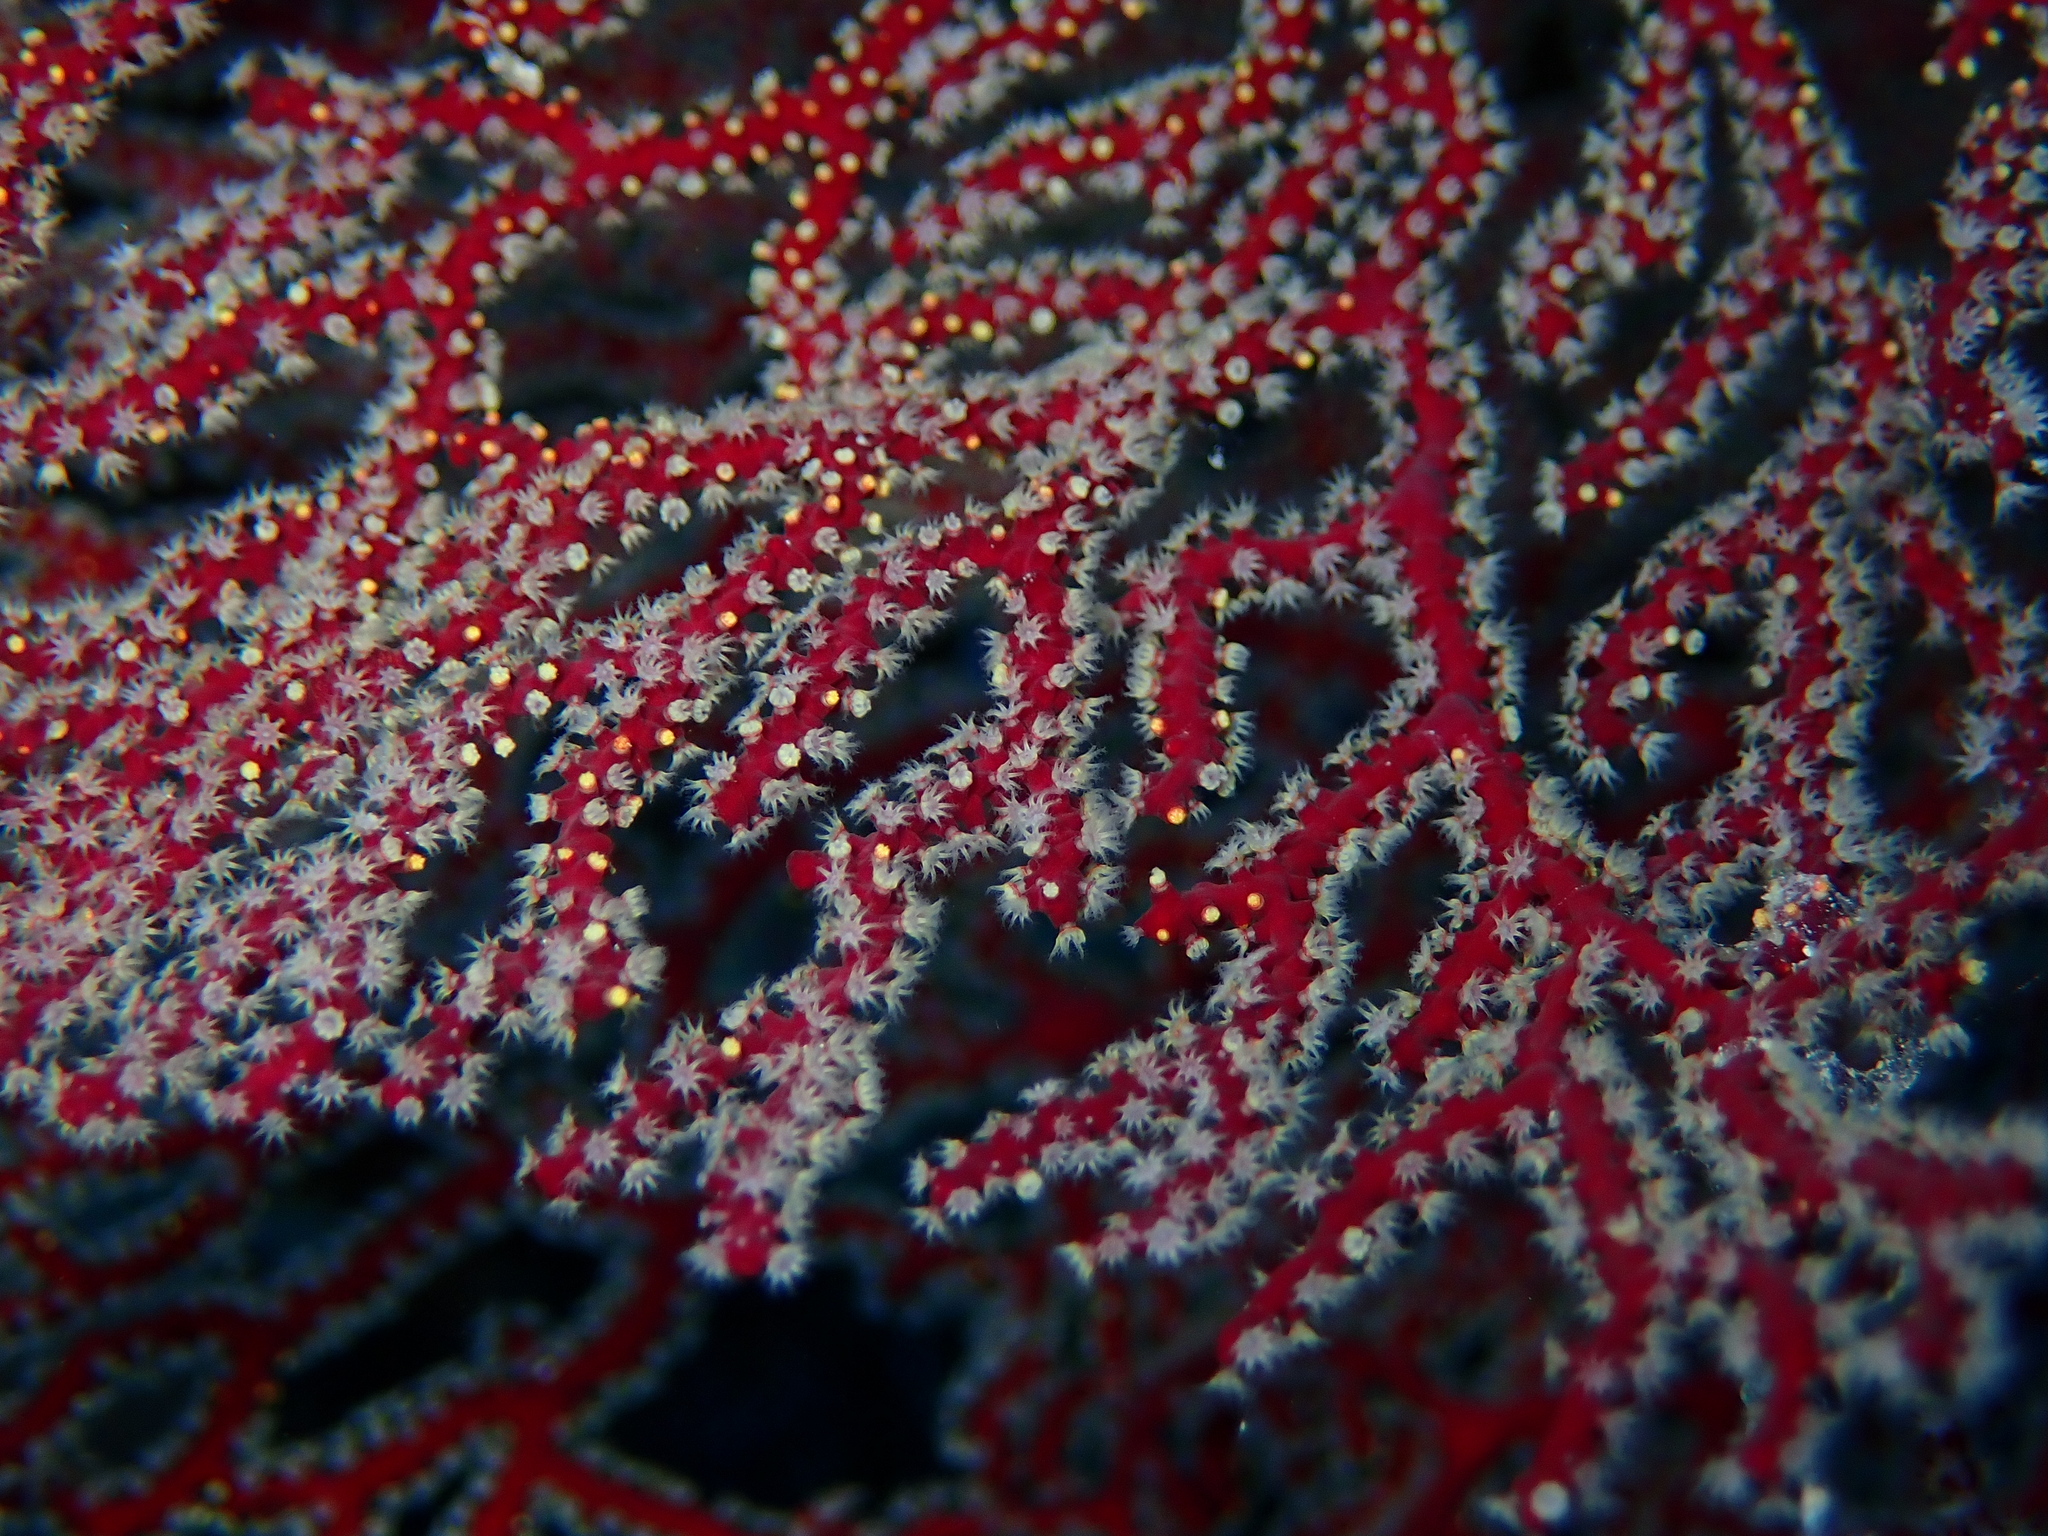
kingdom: Animalia
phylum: Cnidaria
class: Anthozoa
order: Malacalcyonacea
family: Melithaeidae
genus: Melithaea
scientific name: Melithaea splendens
